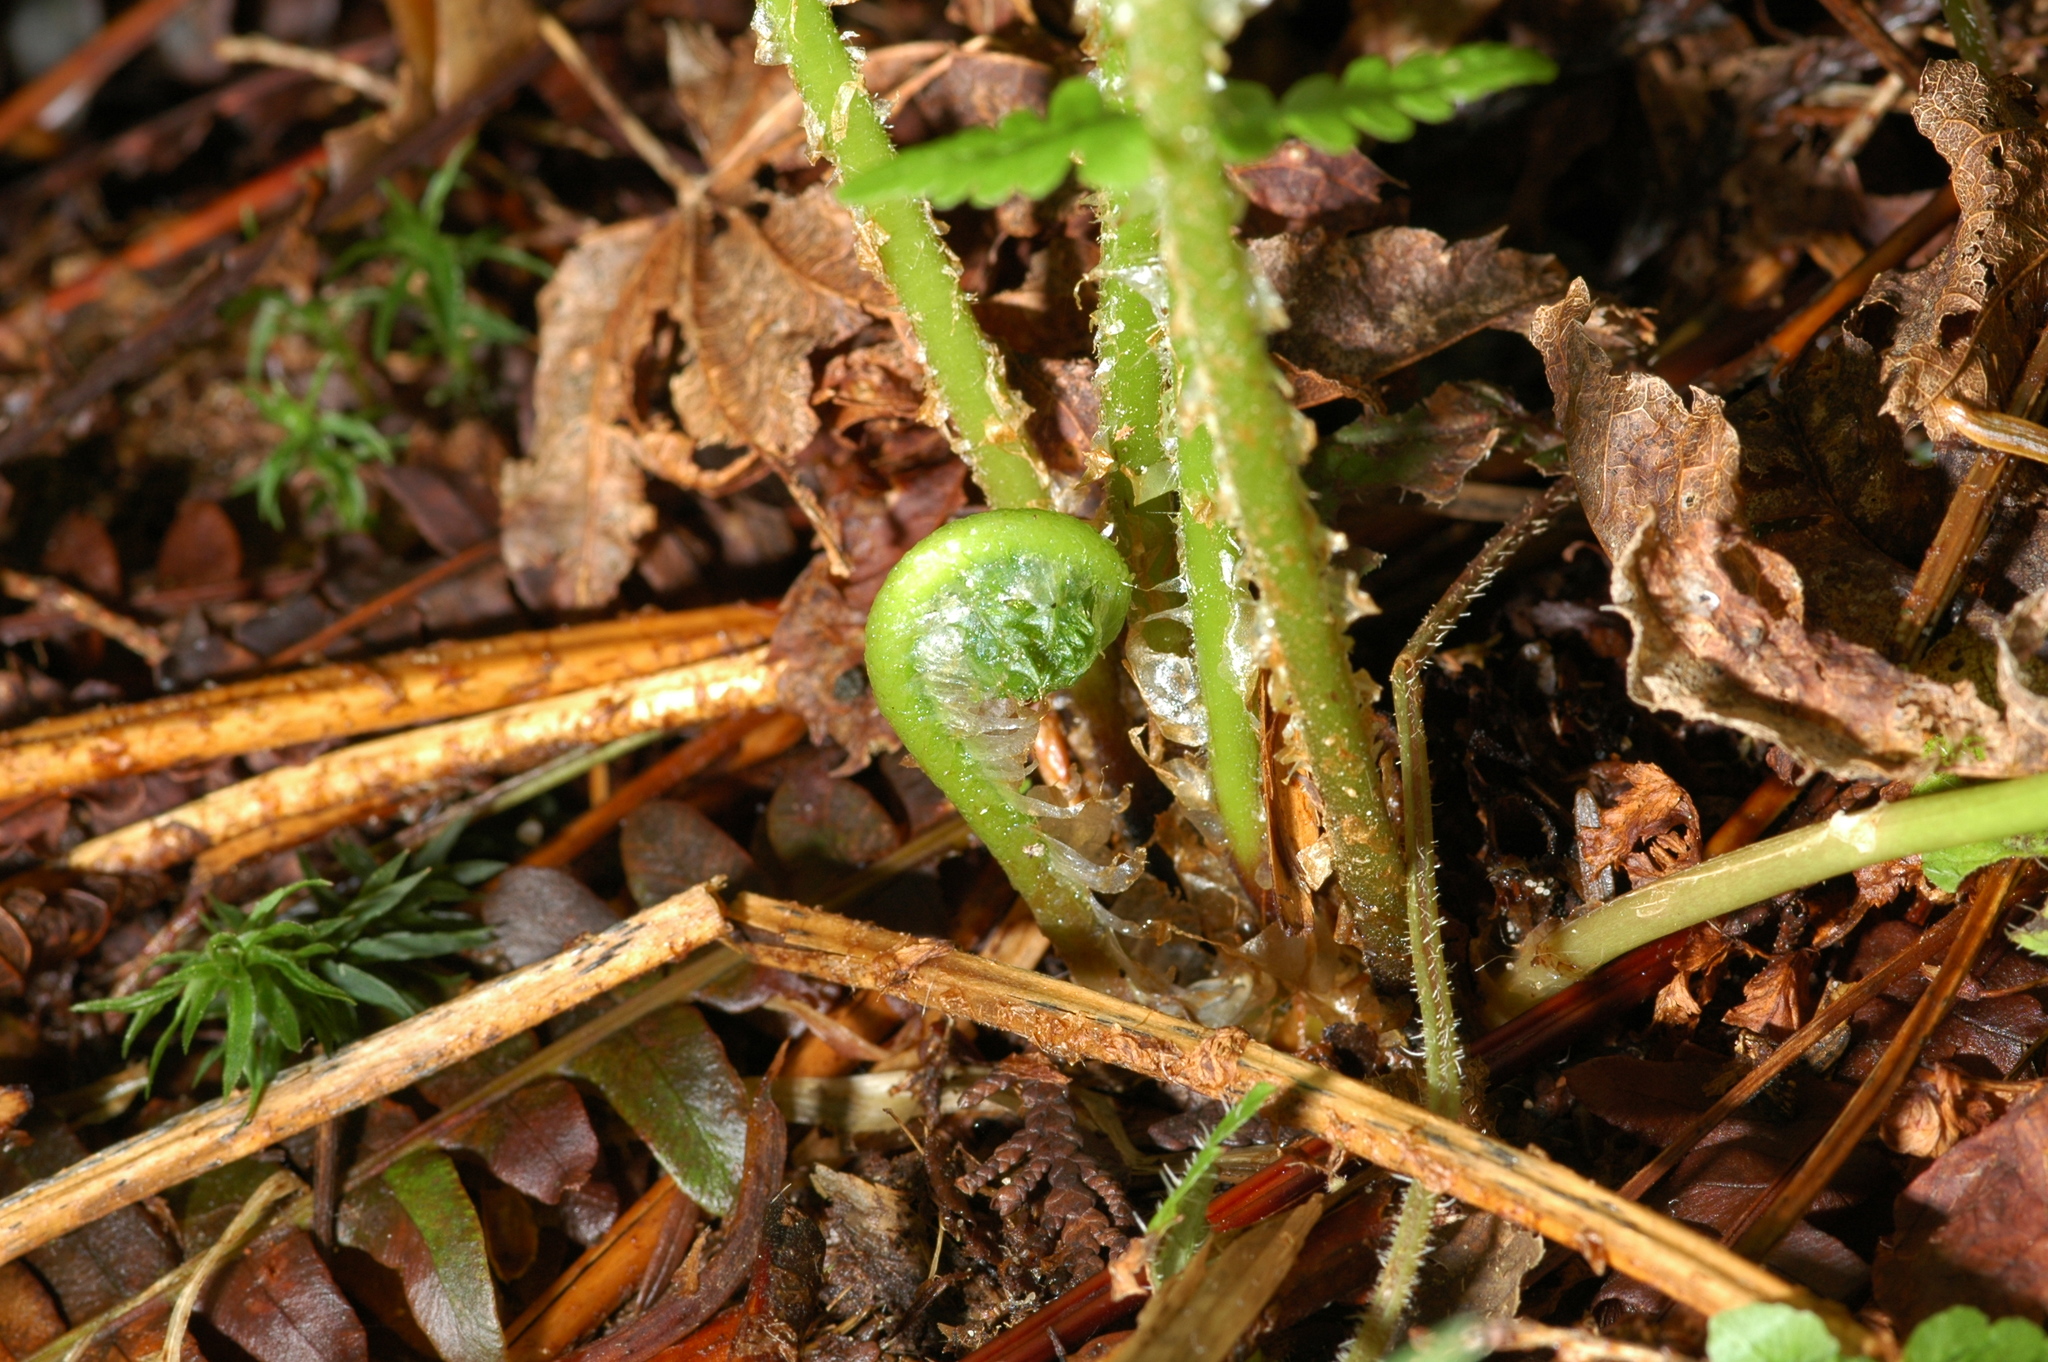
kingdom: Plantae
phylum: Tracheophyta
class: Polypodiopsida
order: Polypodiales
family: Thelypteridaceae
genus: Oreopteris
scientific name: Oreopteris quelpartensis
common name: Mountain fern
